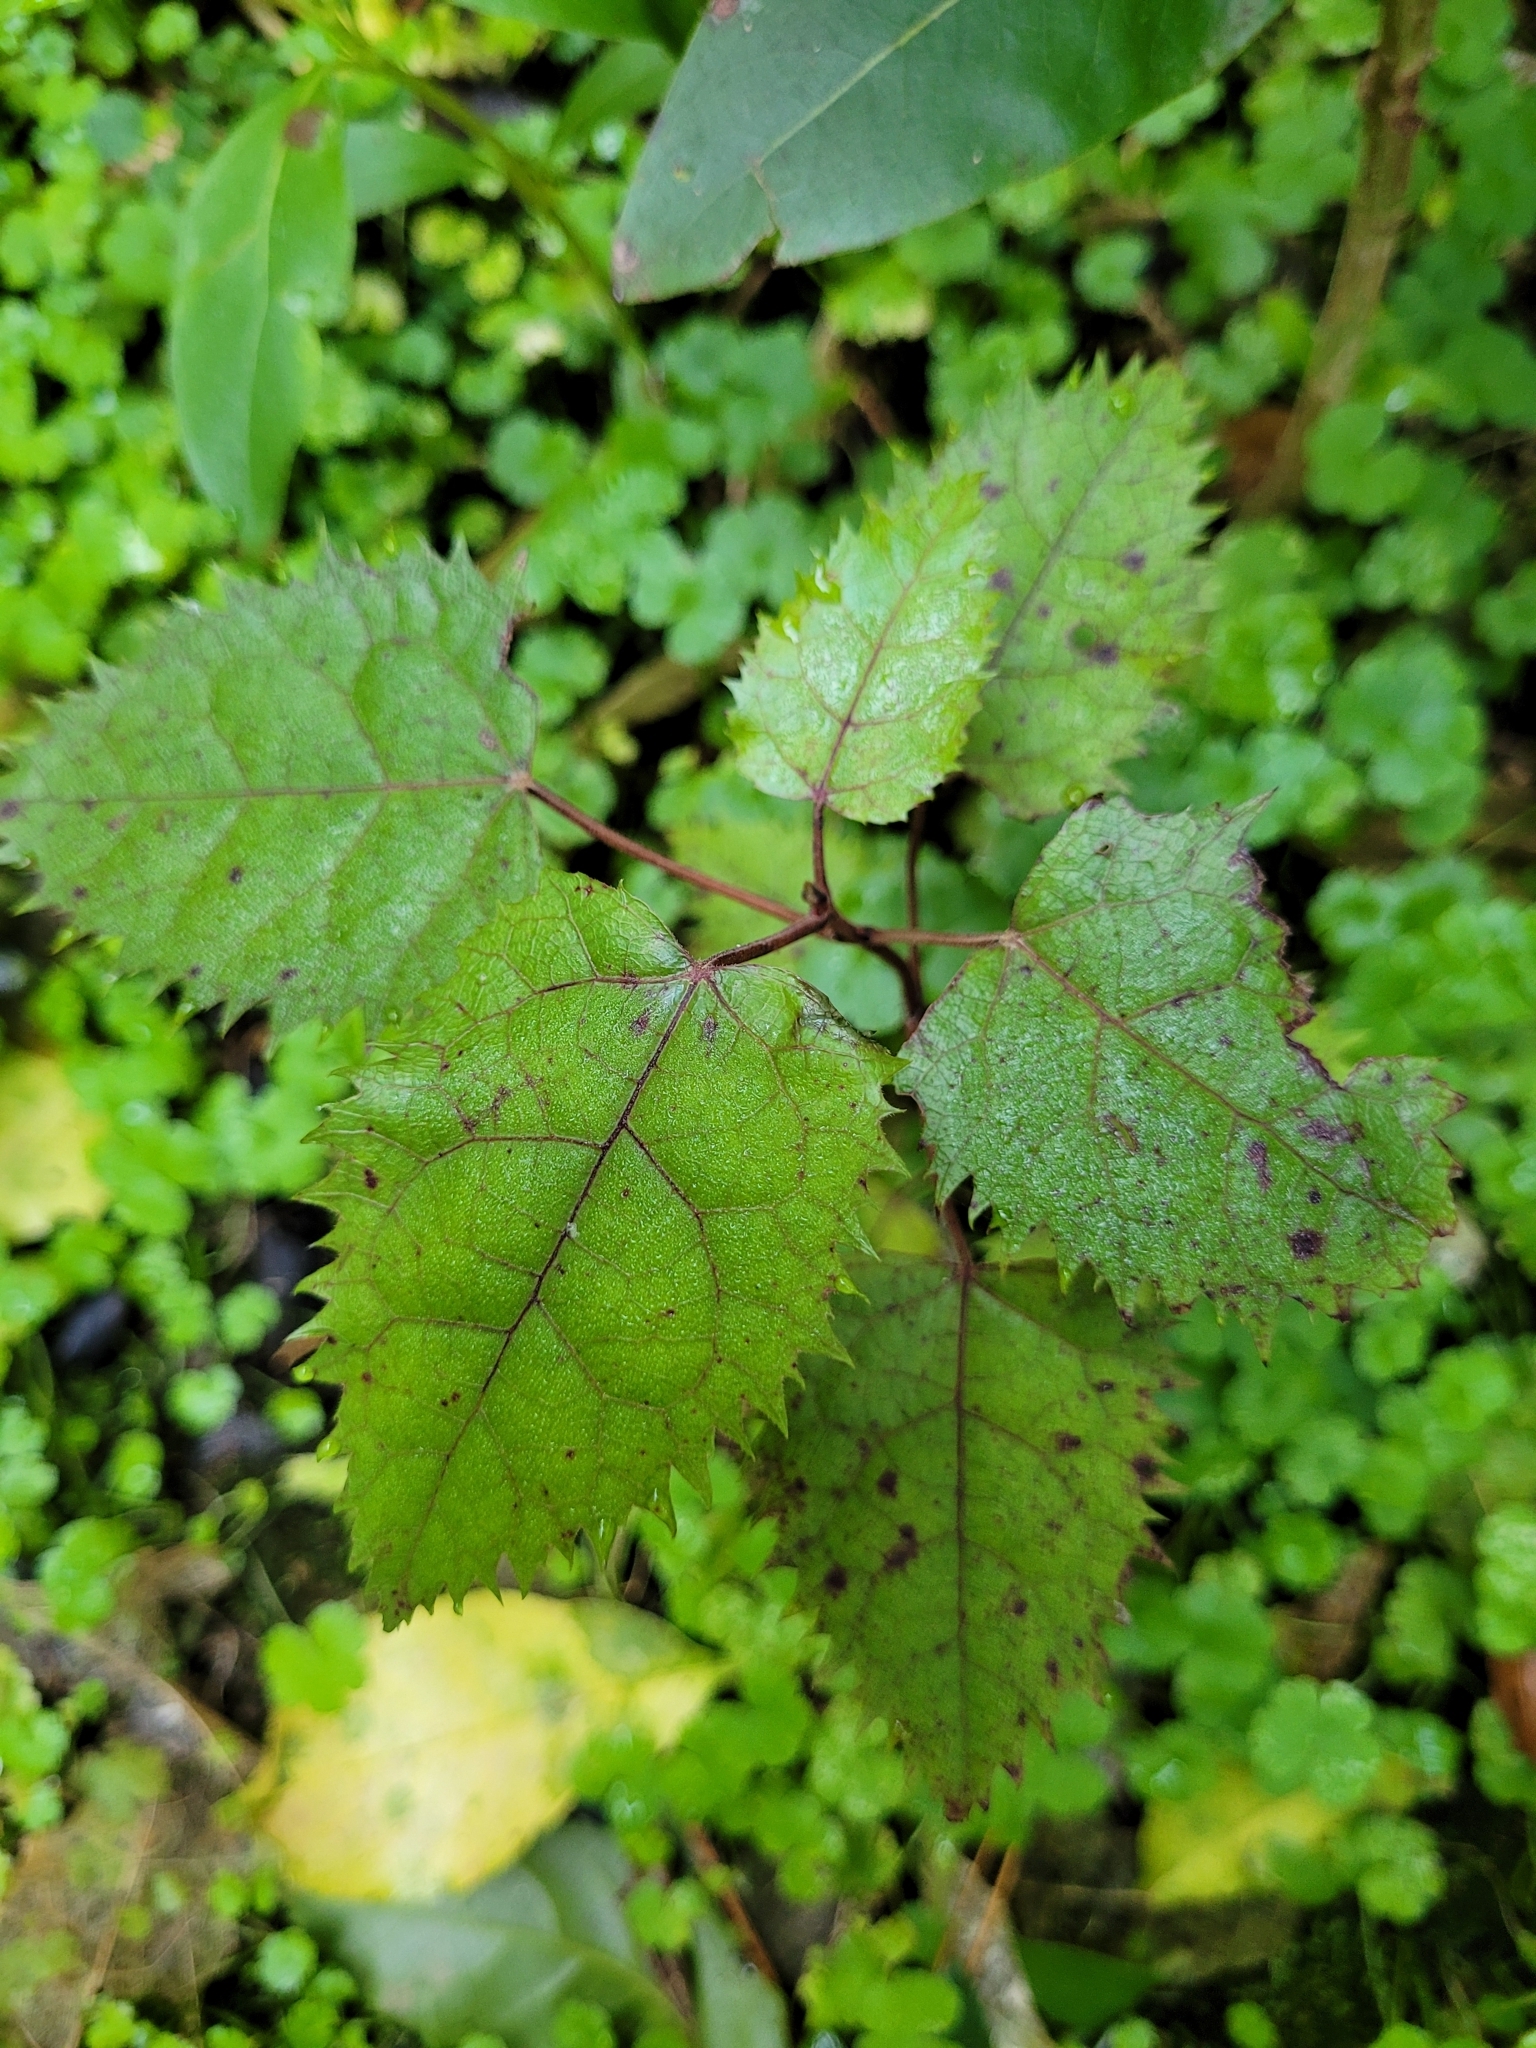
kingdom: Plantae
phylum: Tracheophyta
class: Magnoliopsida
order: Oxalidales
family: Elaeocarpaceae
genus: Aristotelia
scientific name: Aristotelia serrata
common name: New zealand wineberry
